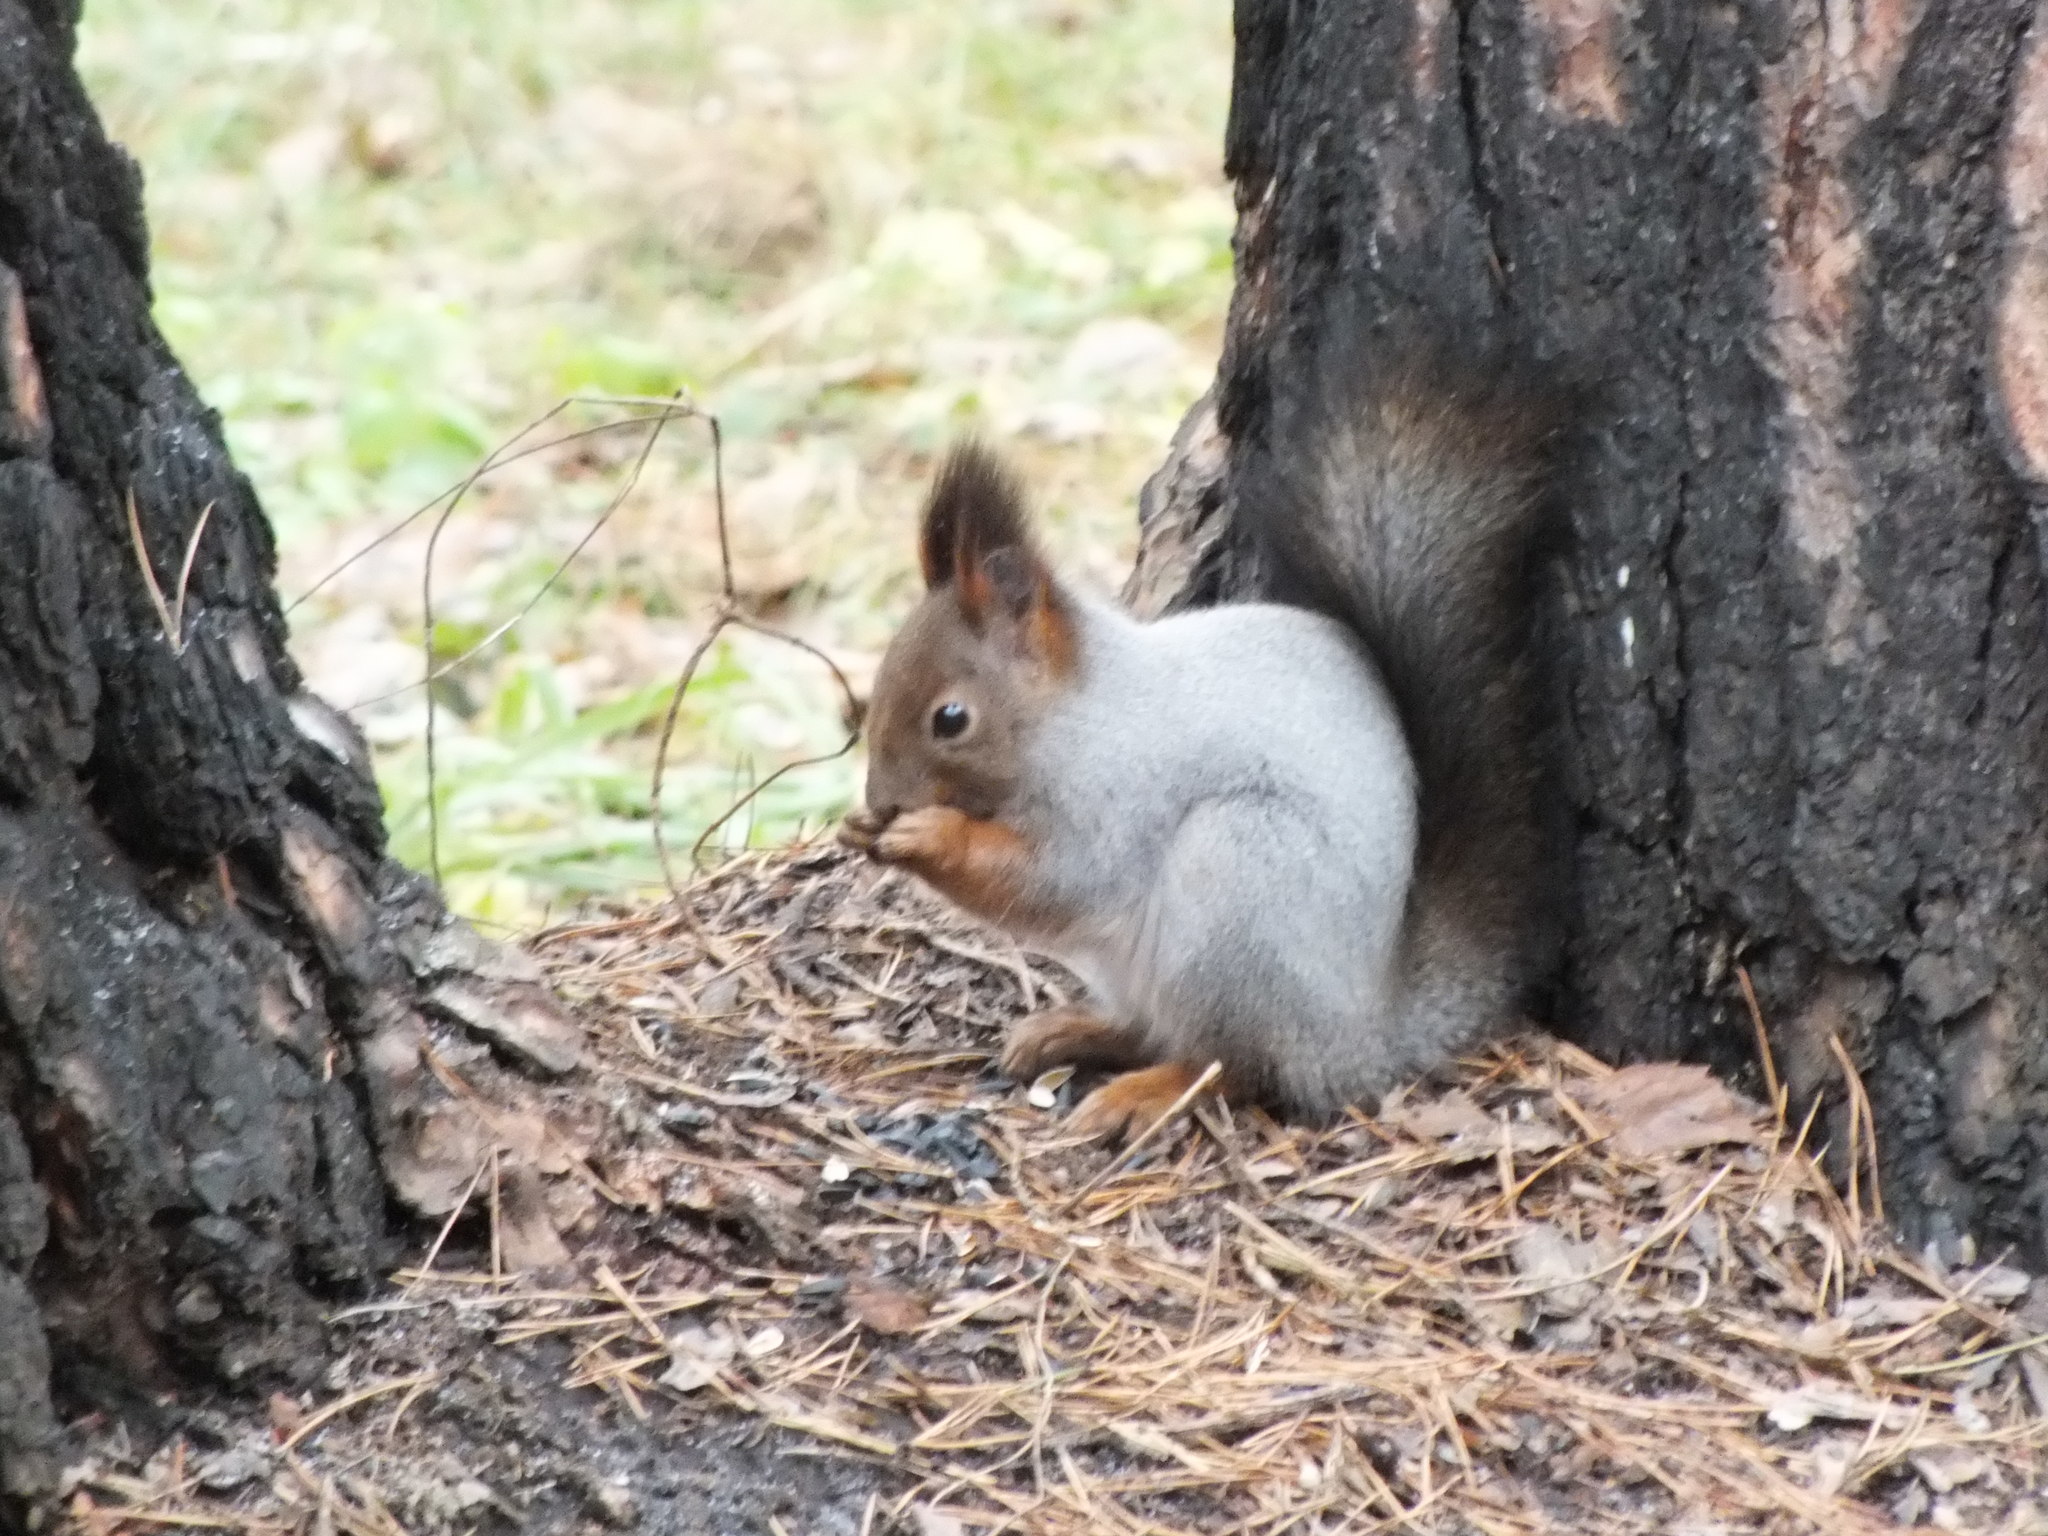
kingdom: Animalia
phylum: Chordata
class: Mammalia
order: Rodentia
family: Sciuridae
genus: Sciurus
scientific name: Sciurus vulgaris
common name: Eurasian red squirrel
